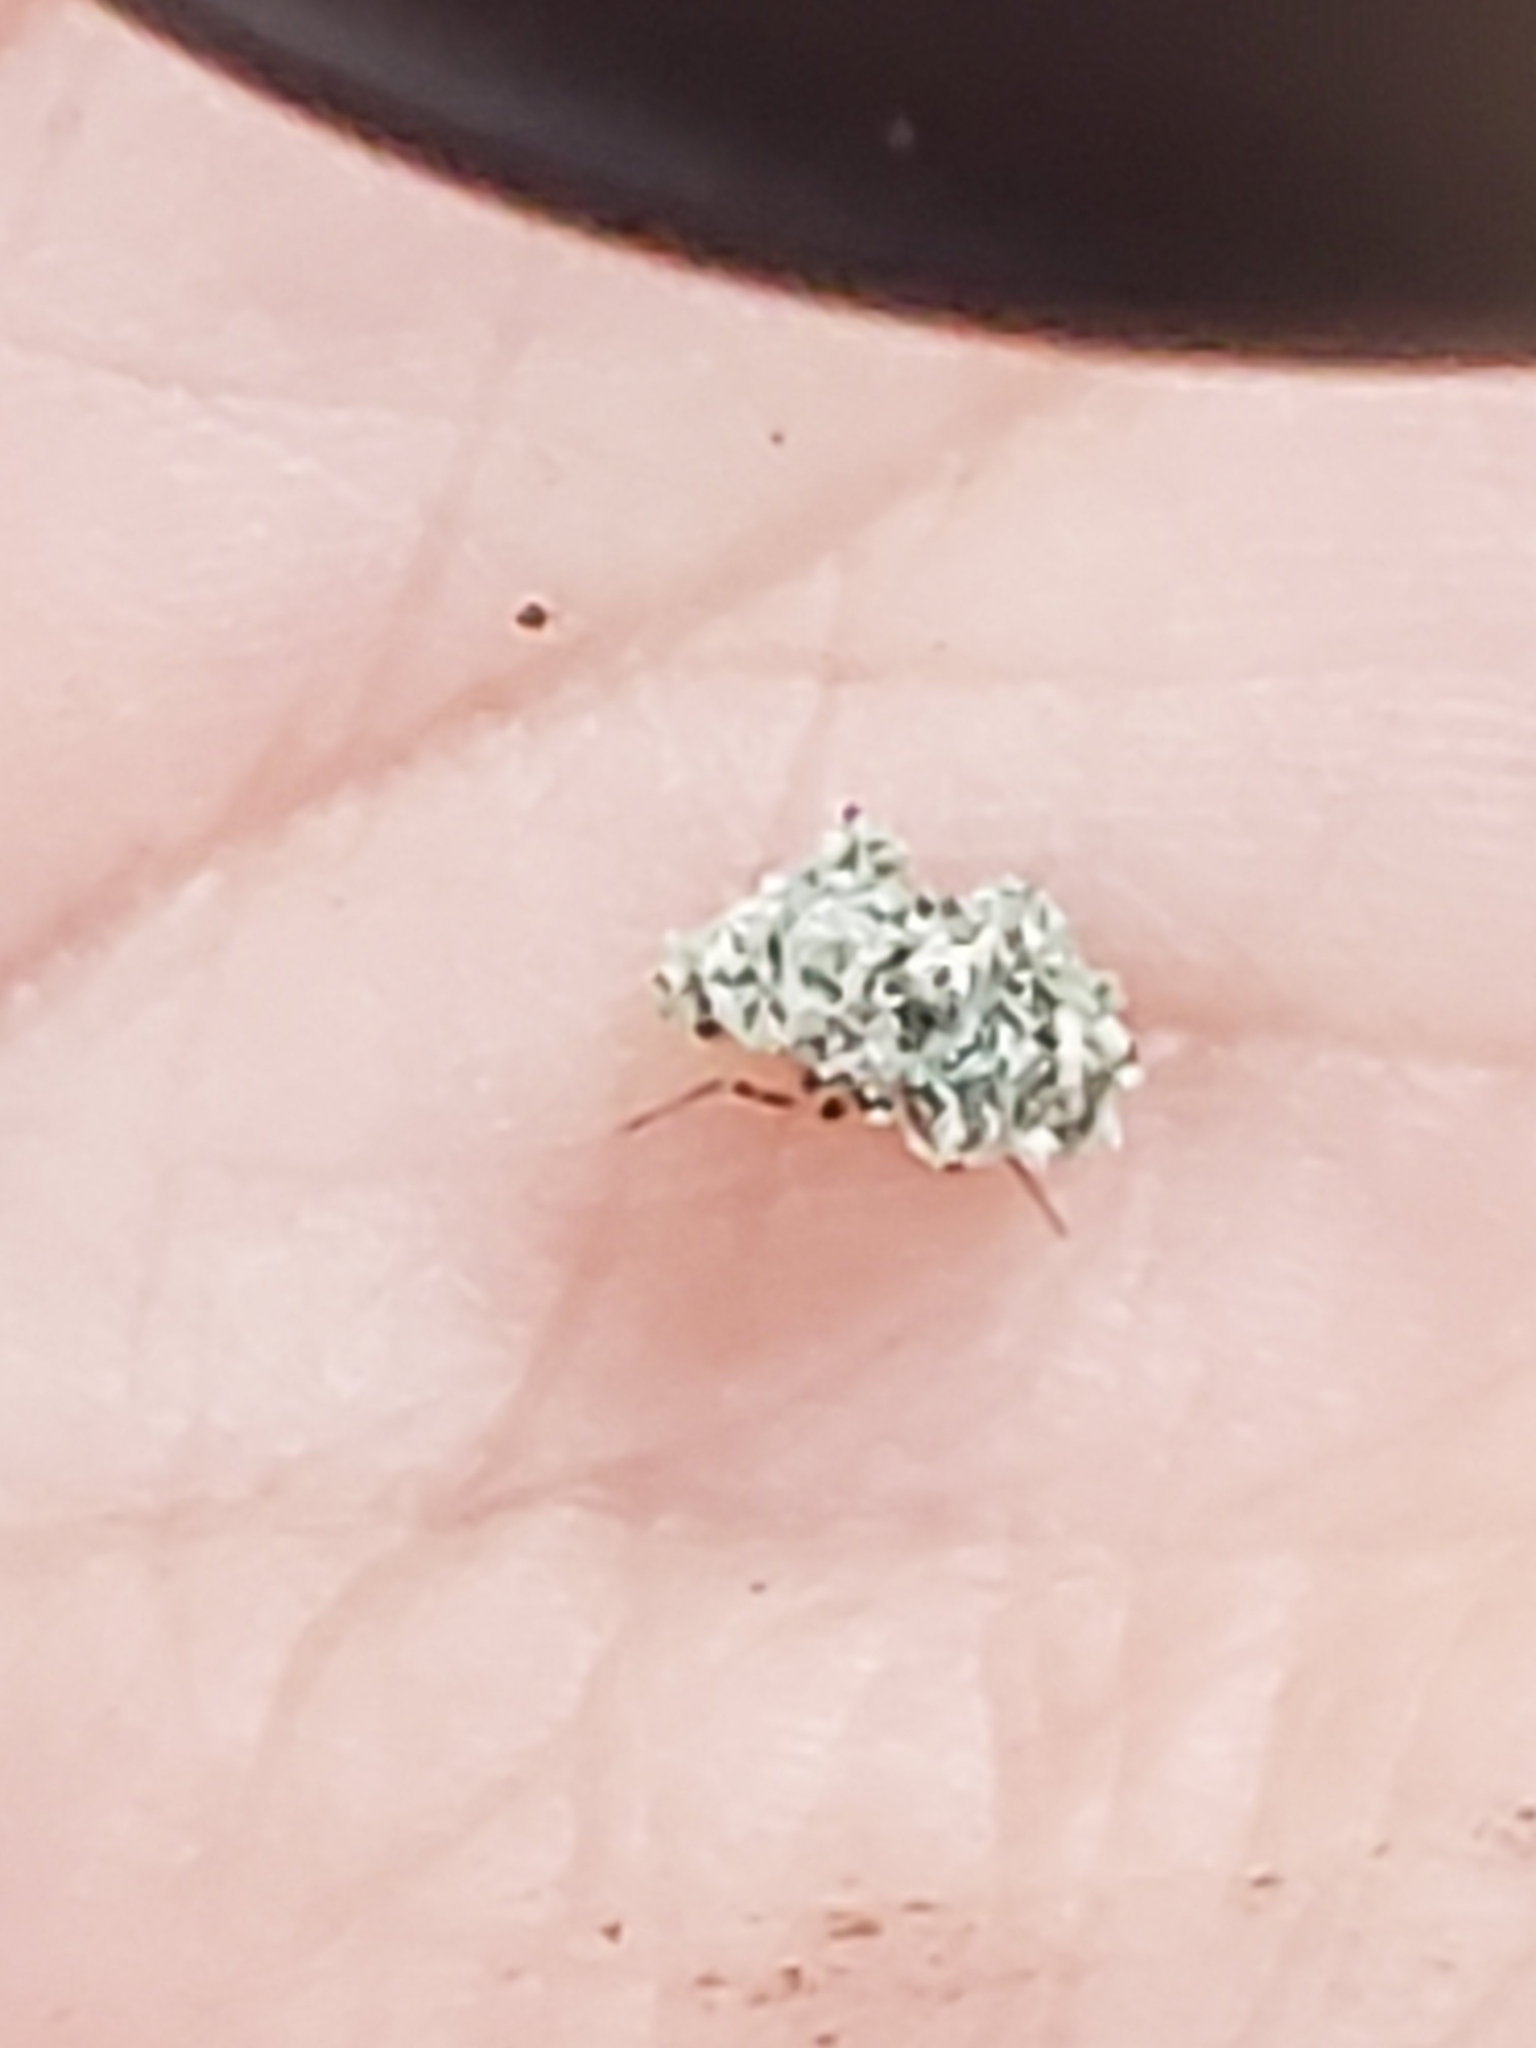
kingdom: Animalia
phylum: Arthropoda
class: Insecta
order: Neuroptera
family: Chrysopidae
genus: Leucochrysa
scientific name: Leucochrysa pavida
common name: Lichen-carrying green lacewing
